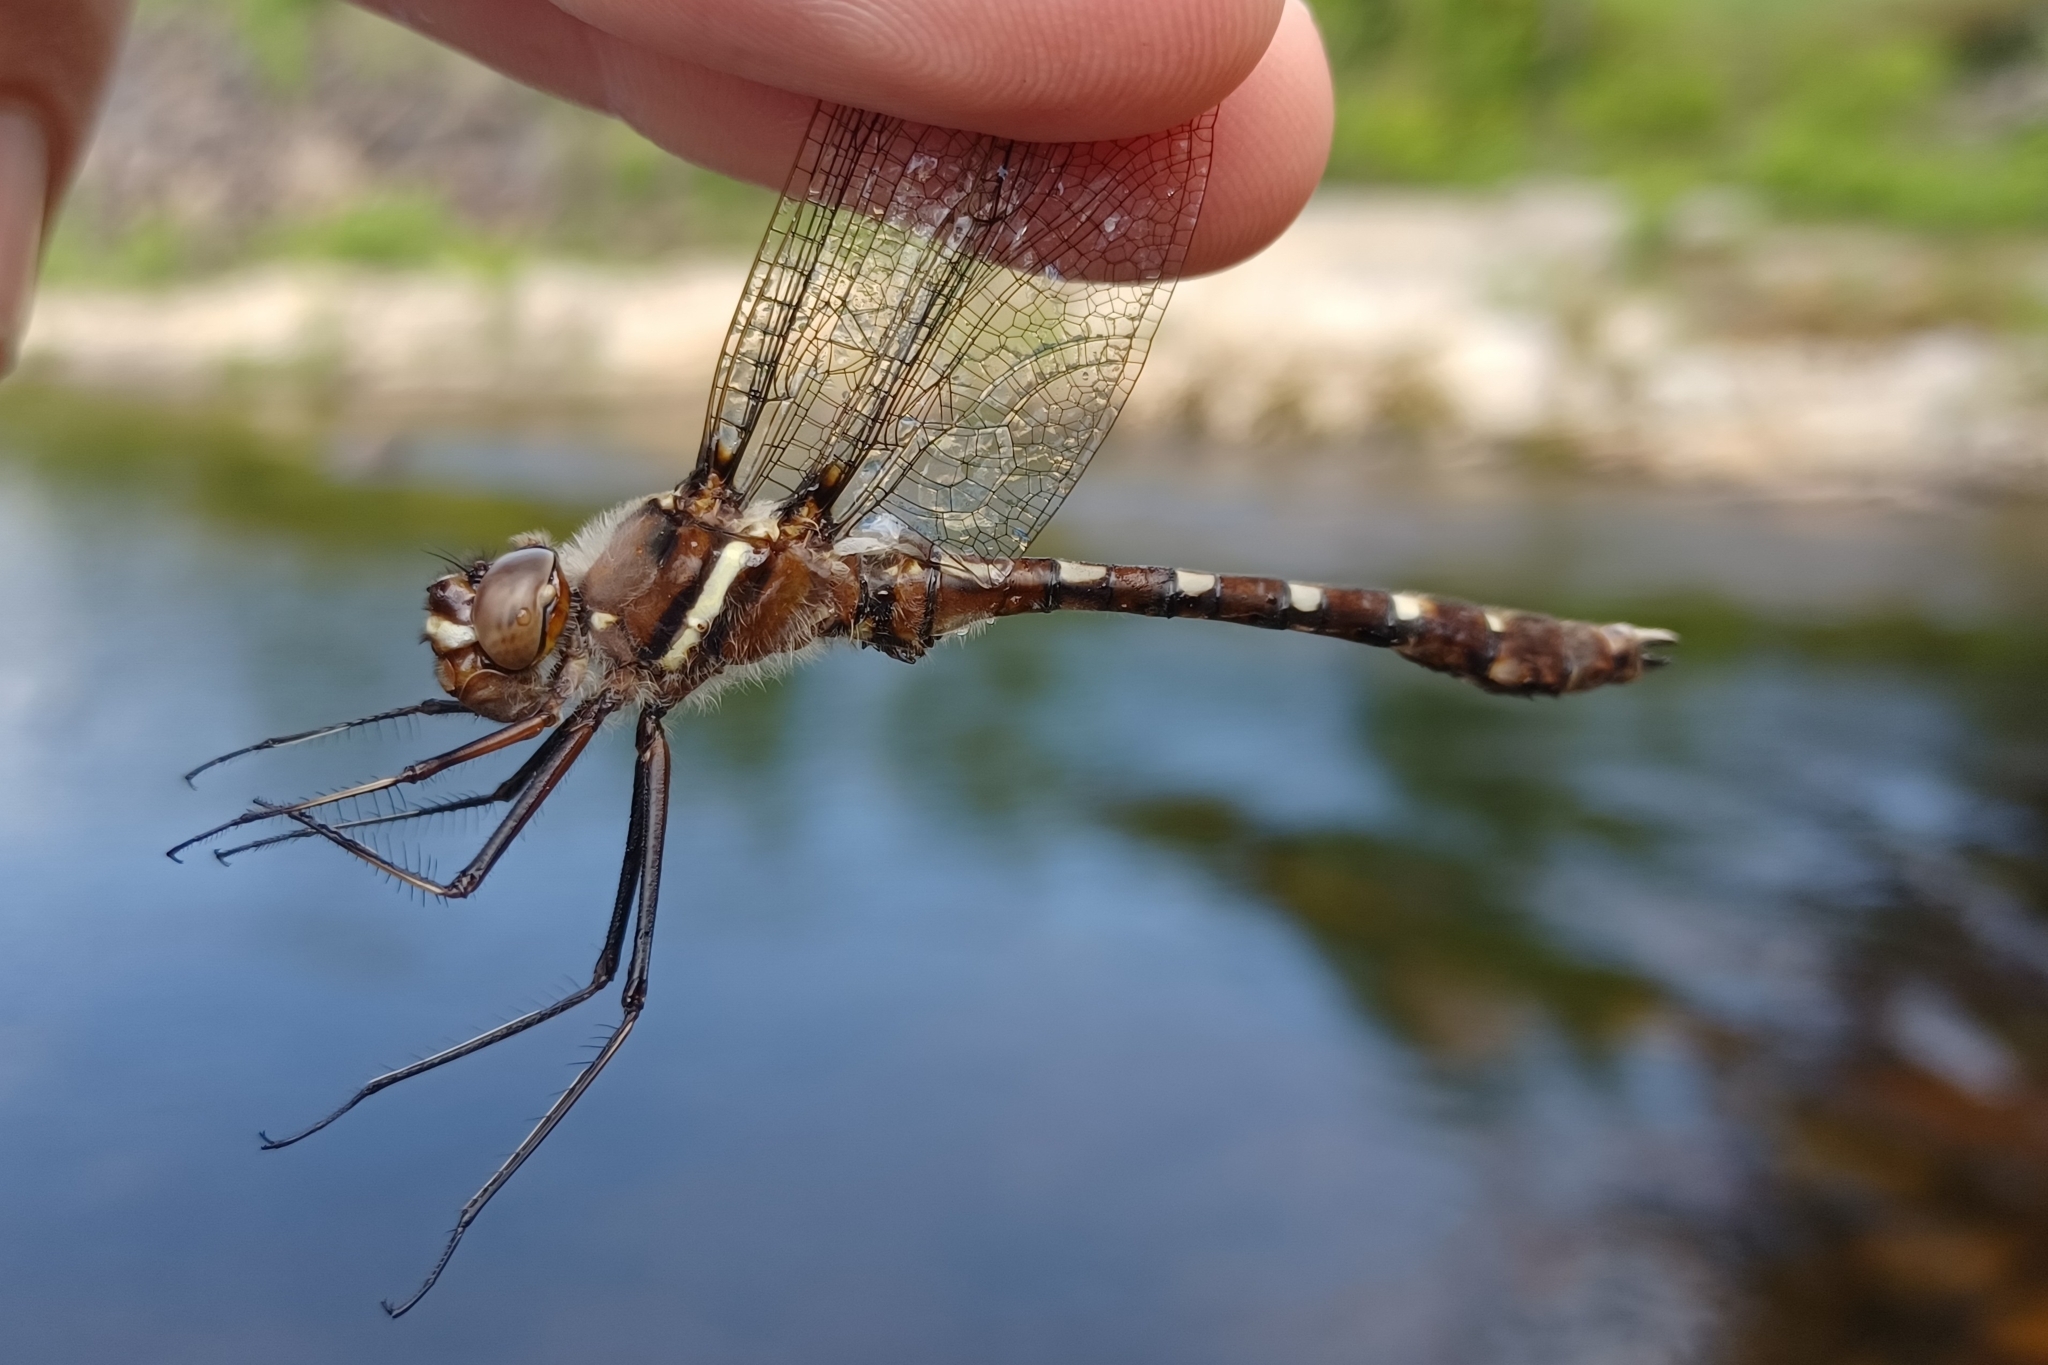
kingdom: Animalia
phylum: Arthropoda
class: Insecta
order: Odonata
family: Macromiidae
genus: Didymops
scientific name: Didymops transversa
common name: Stream cruiser
